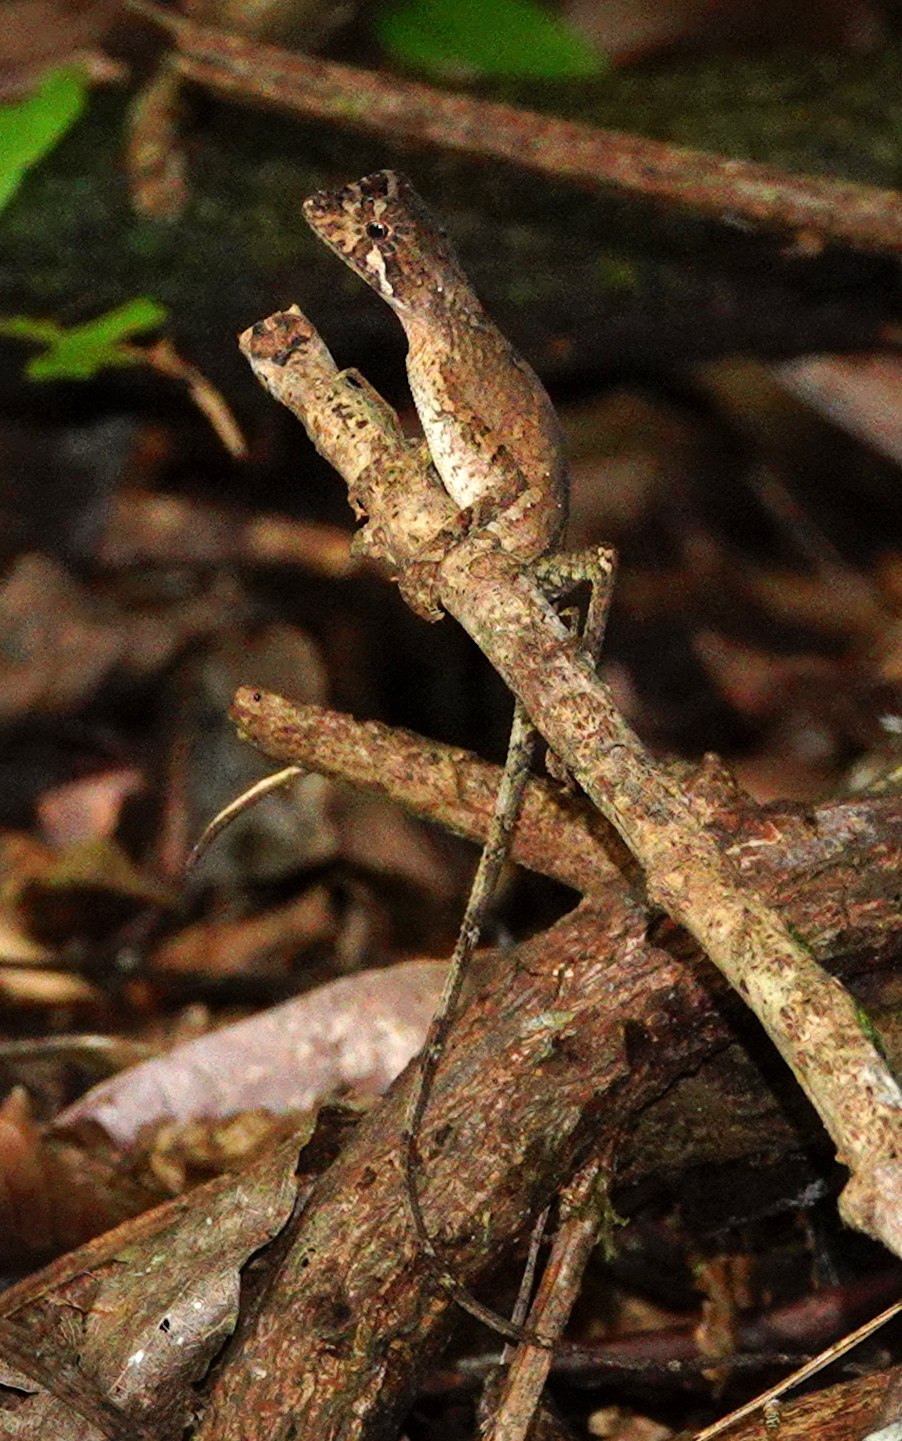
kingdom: Animalia
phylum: Chordata
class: Squamata
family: Agamidae
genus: Otocryptis
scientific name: Otocryptis wiegmanni
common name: Wiegmann's agama
